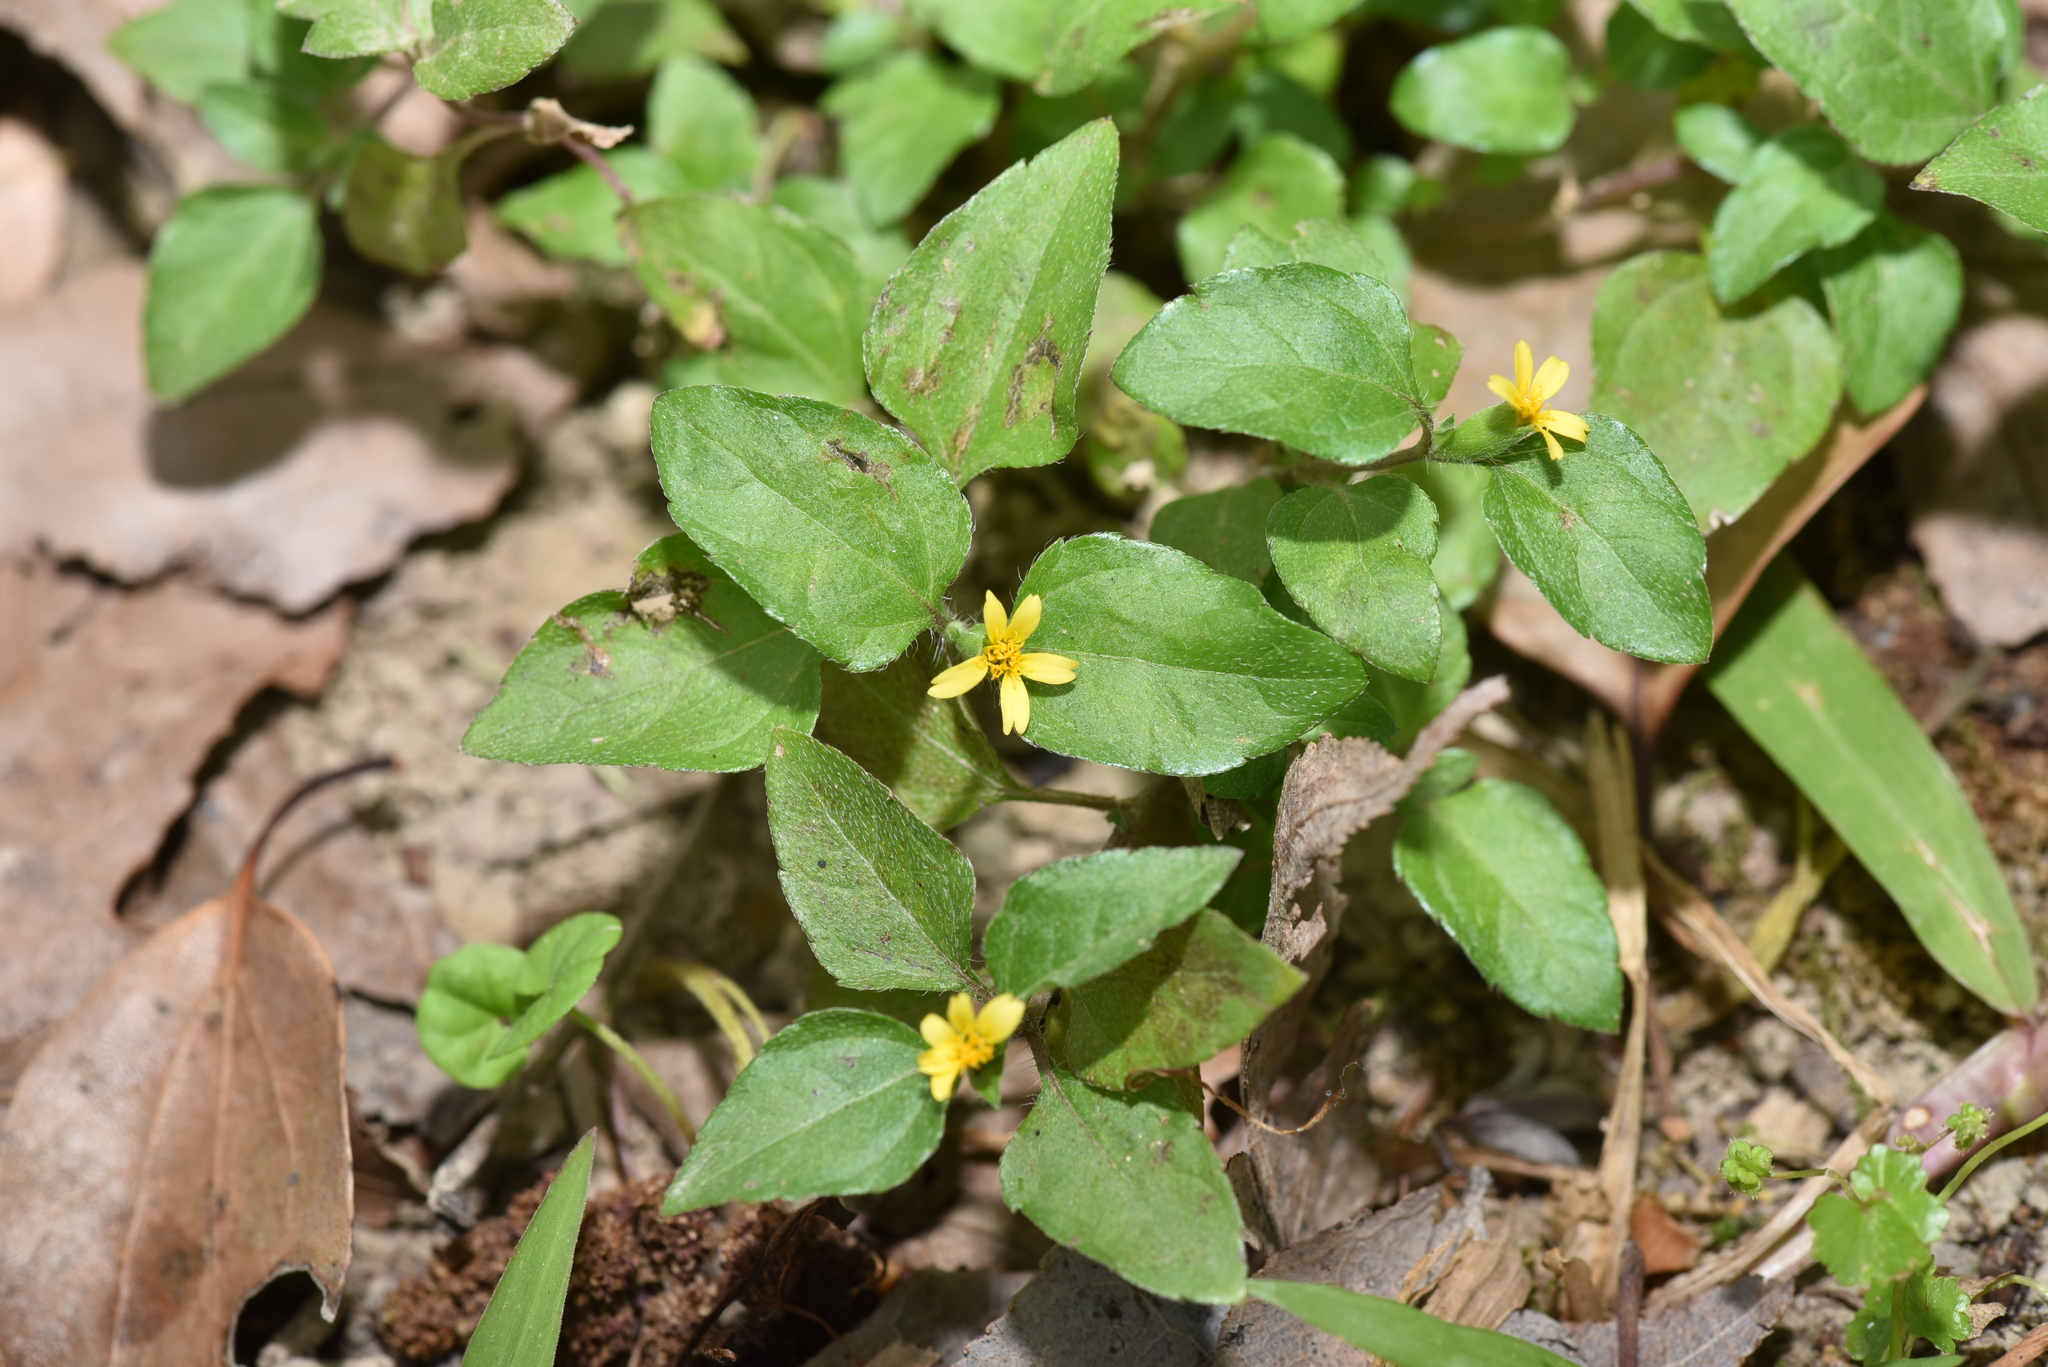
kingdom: Plantae
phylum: Tracheophyta
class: Magnoliopsida
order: Asterales
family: Asteraceae
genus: Calyptocarpus
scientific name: Calyptocarpus vialis
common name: Straggler daisy
